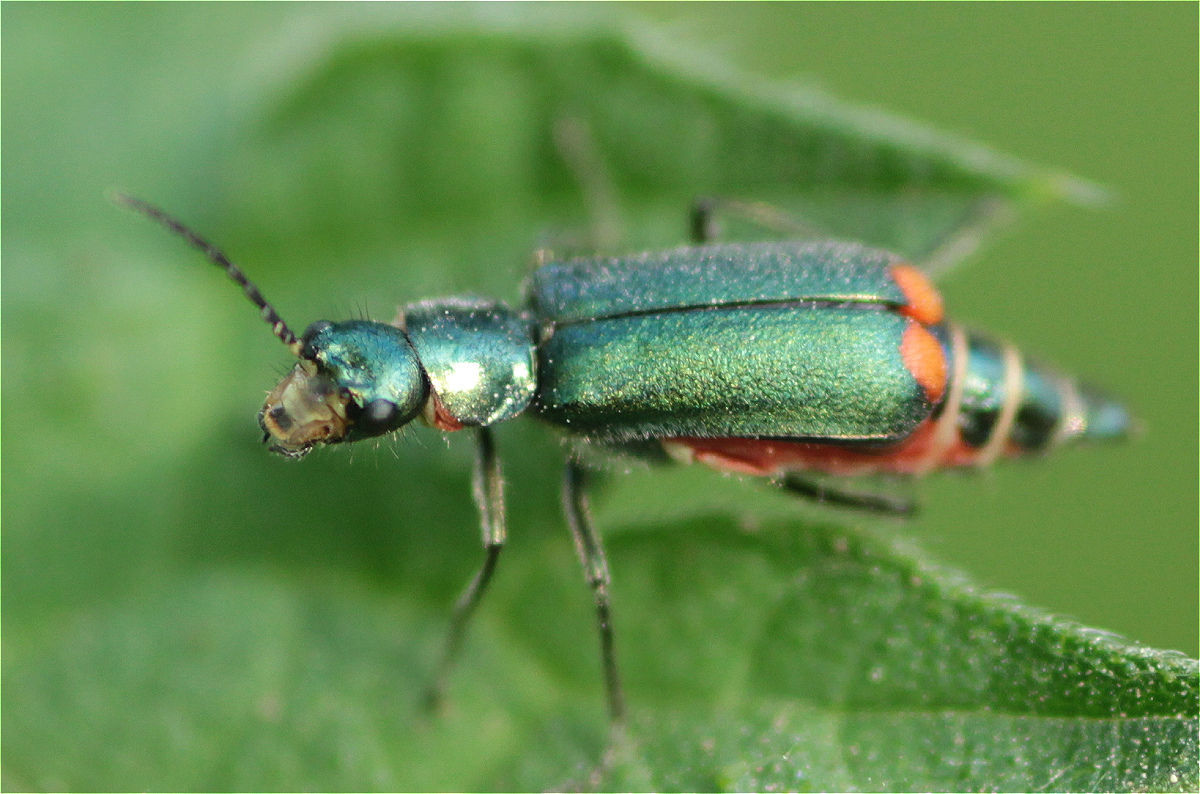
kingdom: Animalia
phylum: Arthropoda
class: Insecta
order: Coleoptera
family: Melyridae
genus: Malachius
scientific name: Malachius bipustulatus
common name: Malachite beetle
